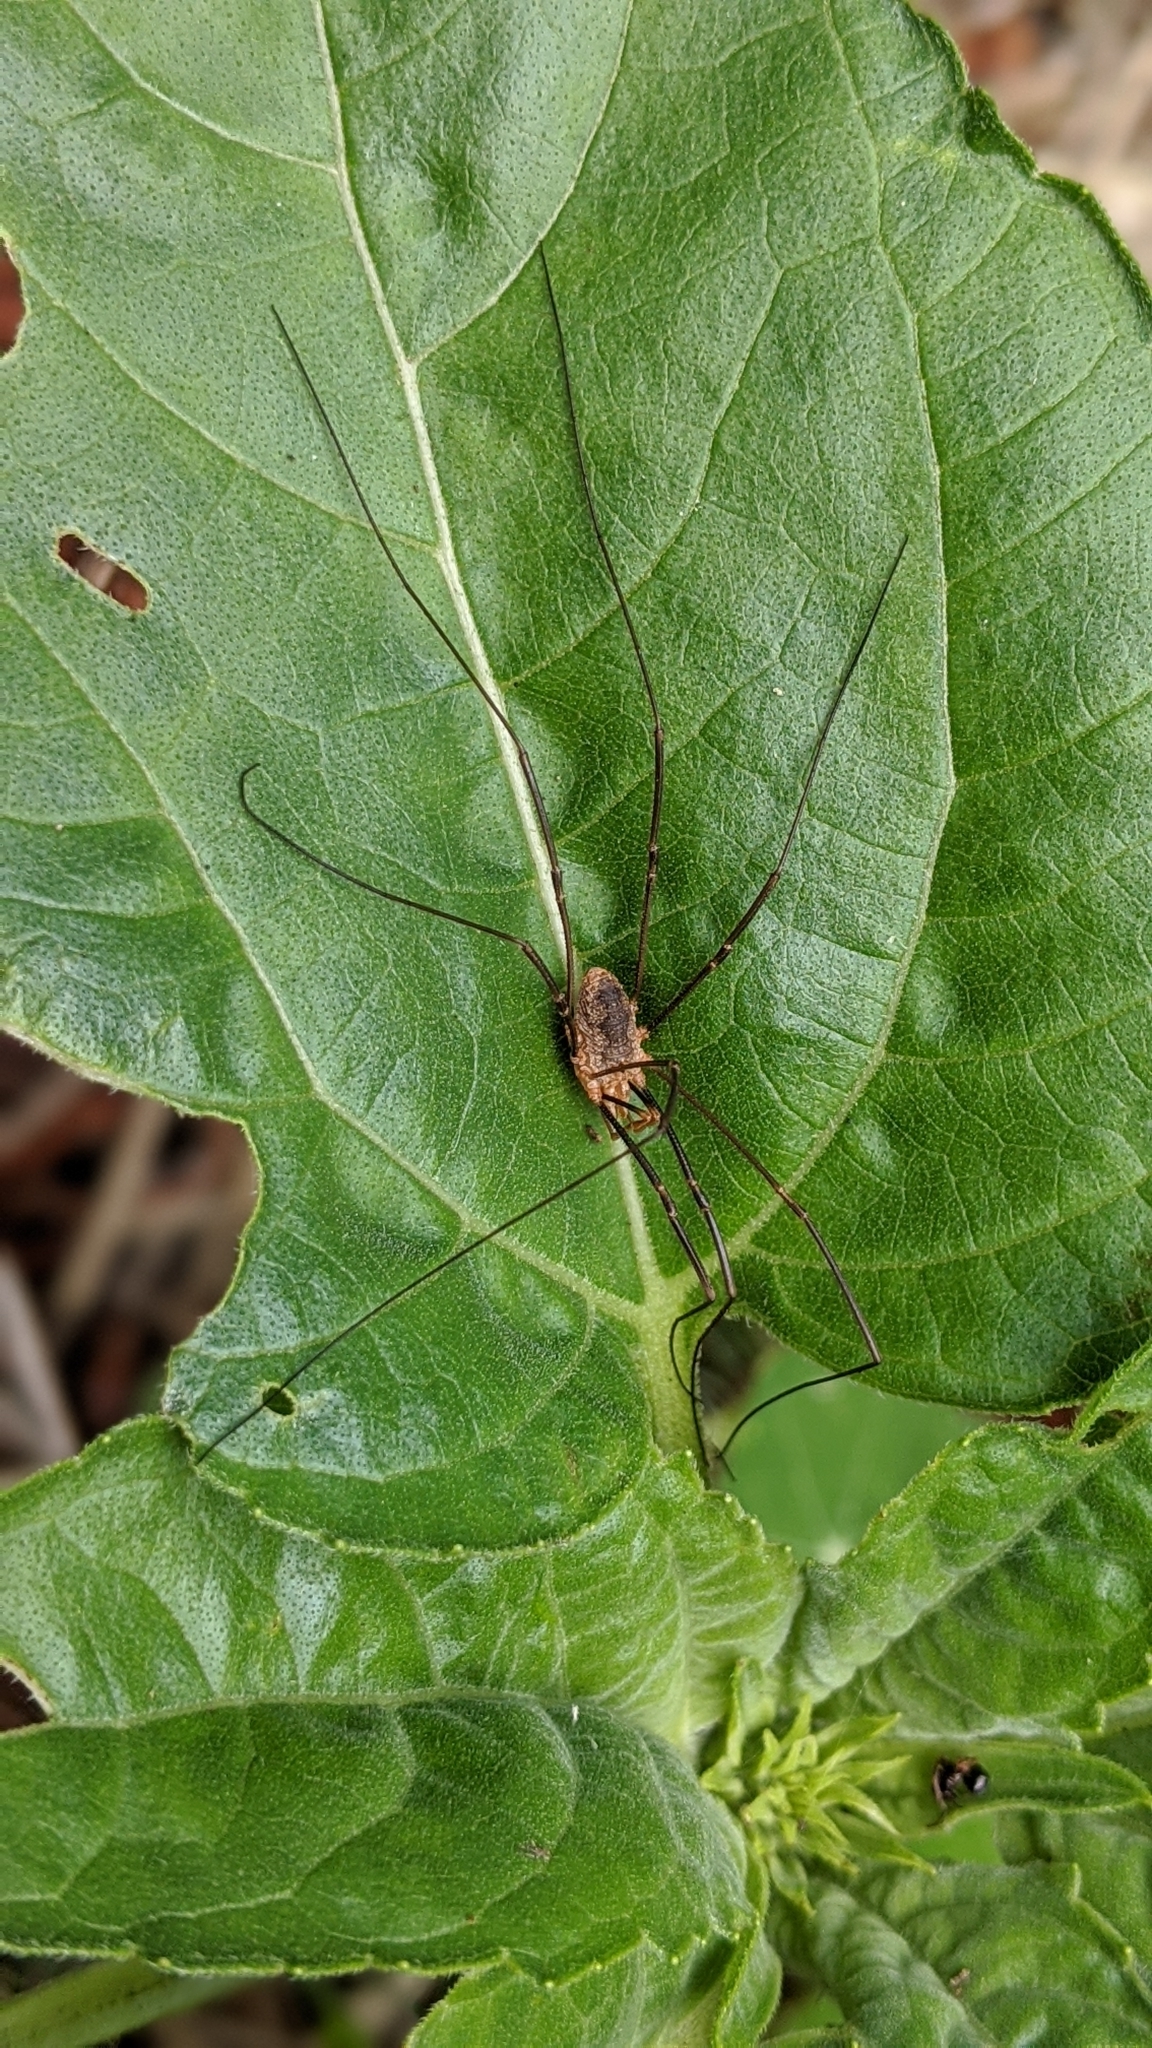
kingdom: Animalia
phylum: Arthropoda
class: Arachnida
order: Opiliones
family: Phalangiidae
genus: Phalangium
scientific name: Phalangium opilio
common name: Daddy longleg
